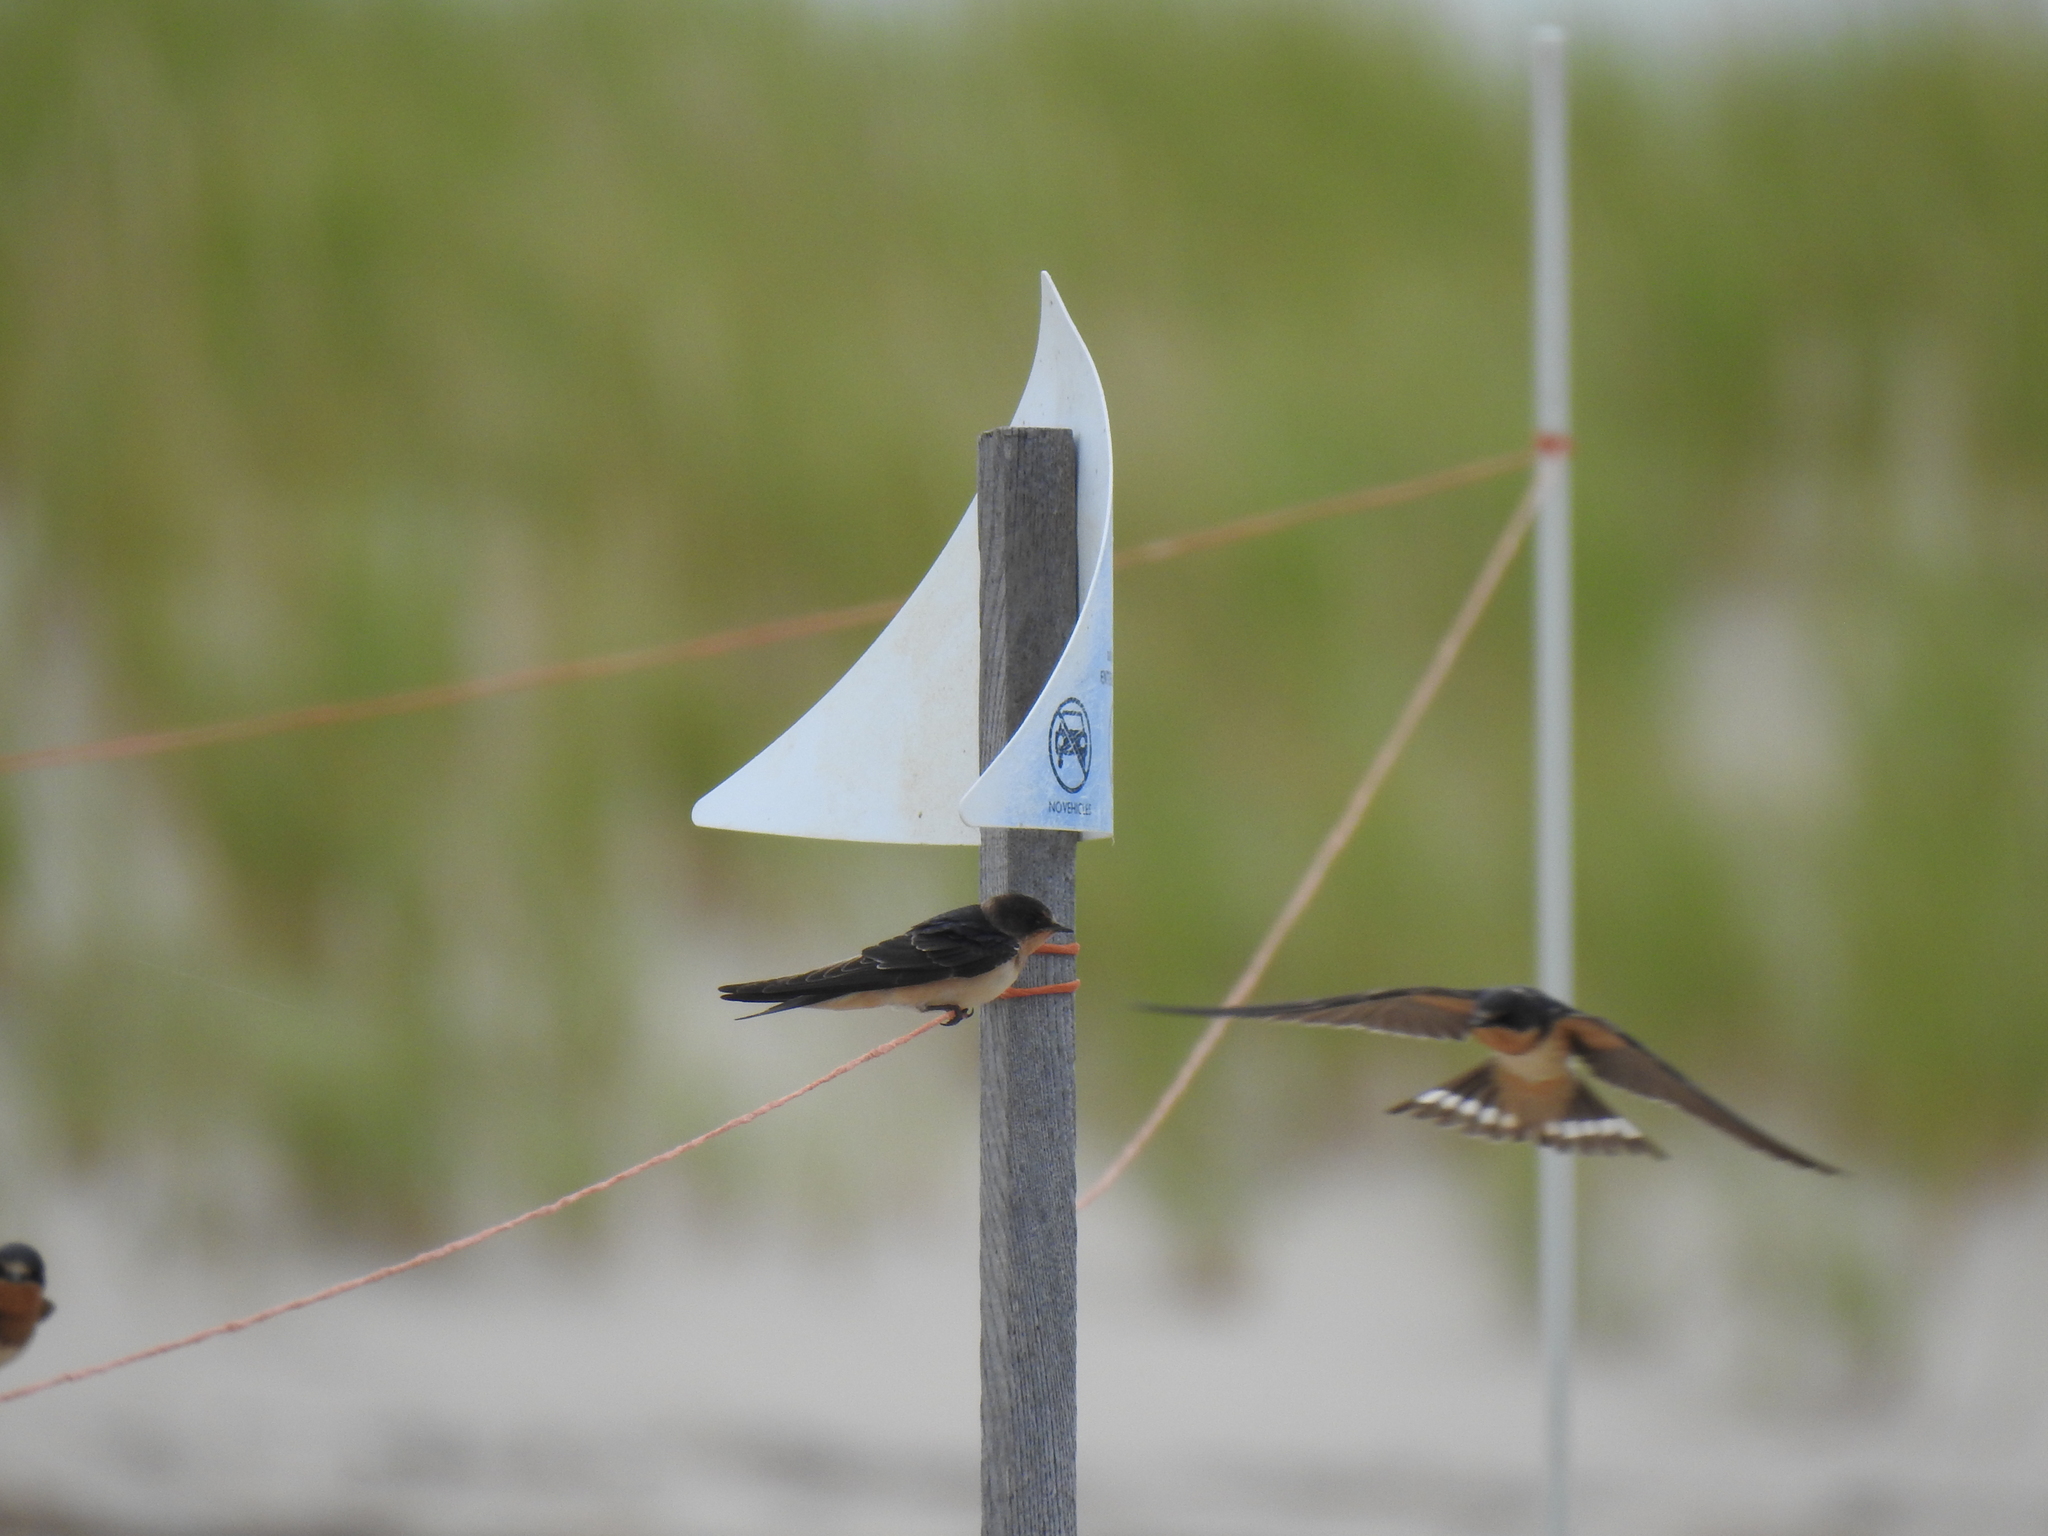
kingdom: Animalia
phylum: Chordata
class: Aves
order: Passeriformes
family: Hirundinidae
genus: Hirundo
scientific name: Hirundo rustica
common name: Barn swallow
